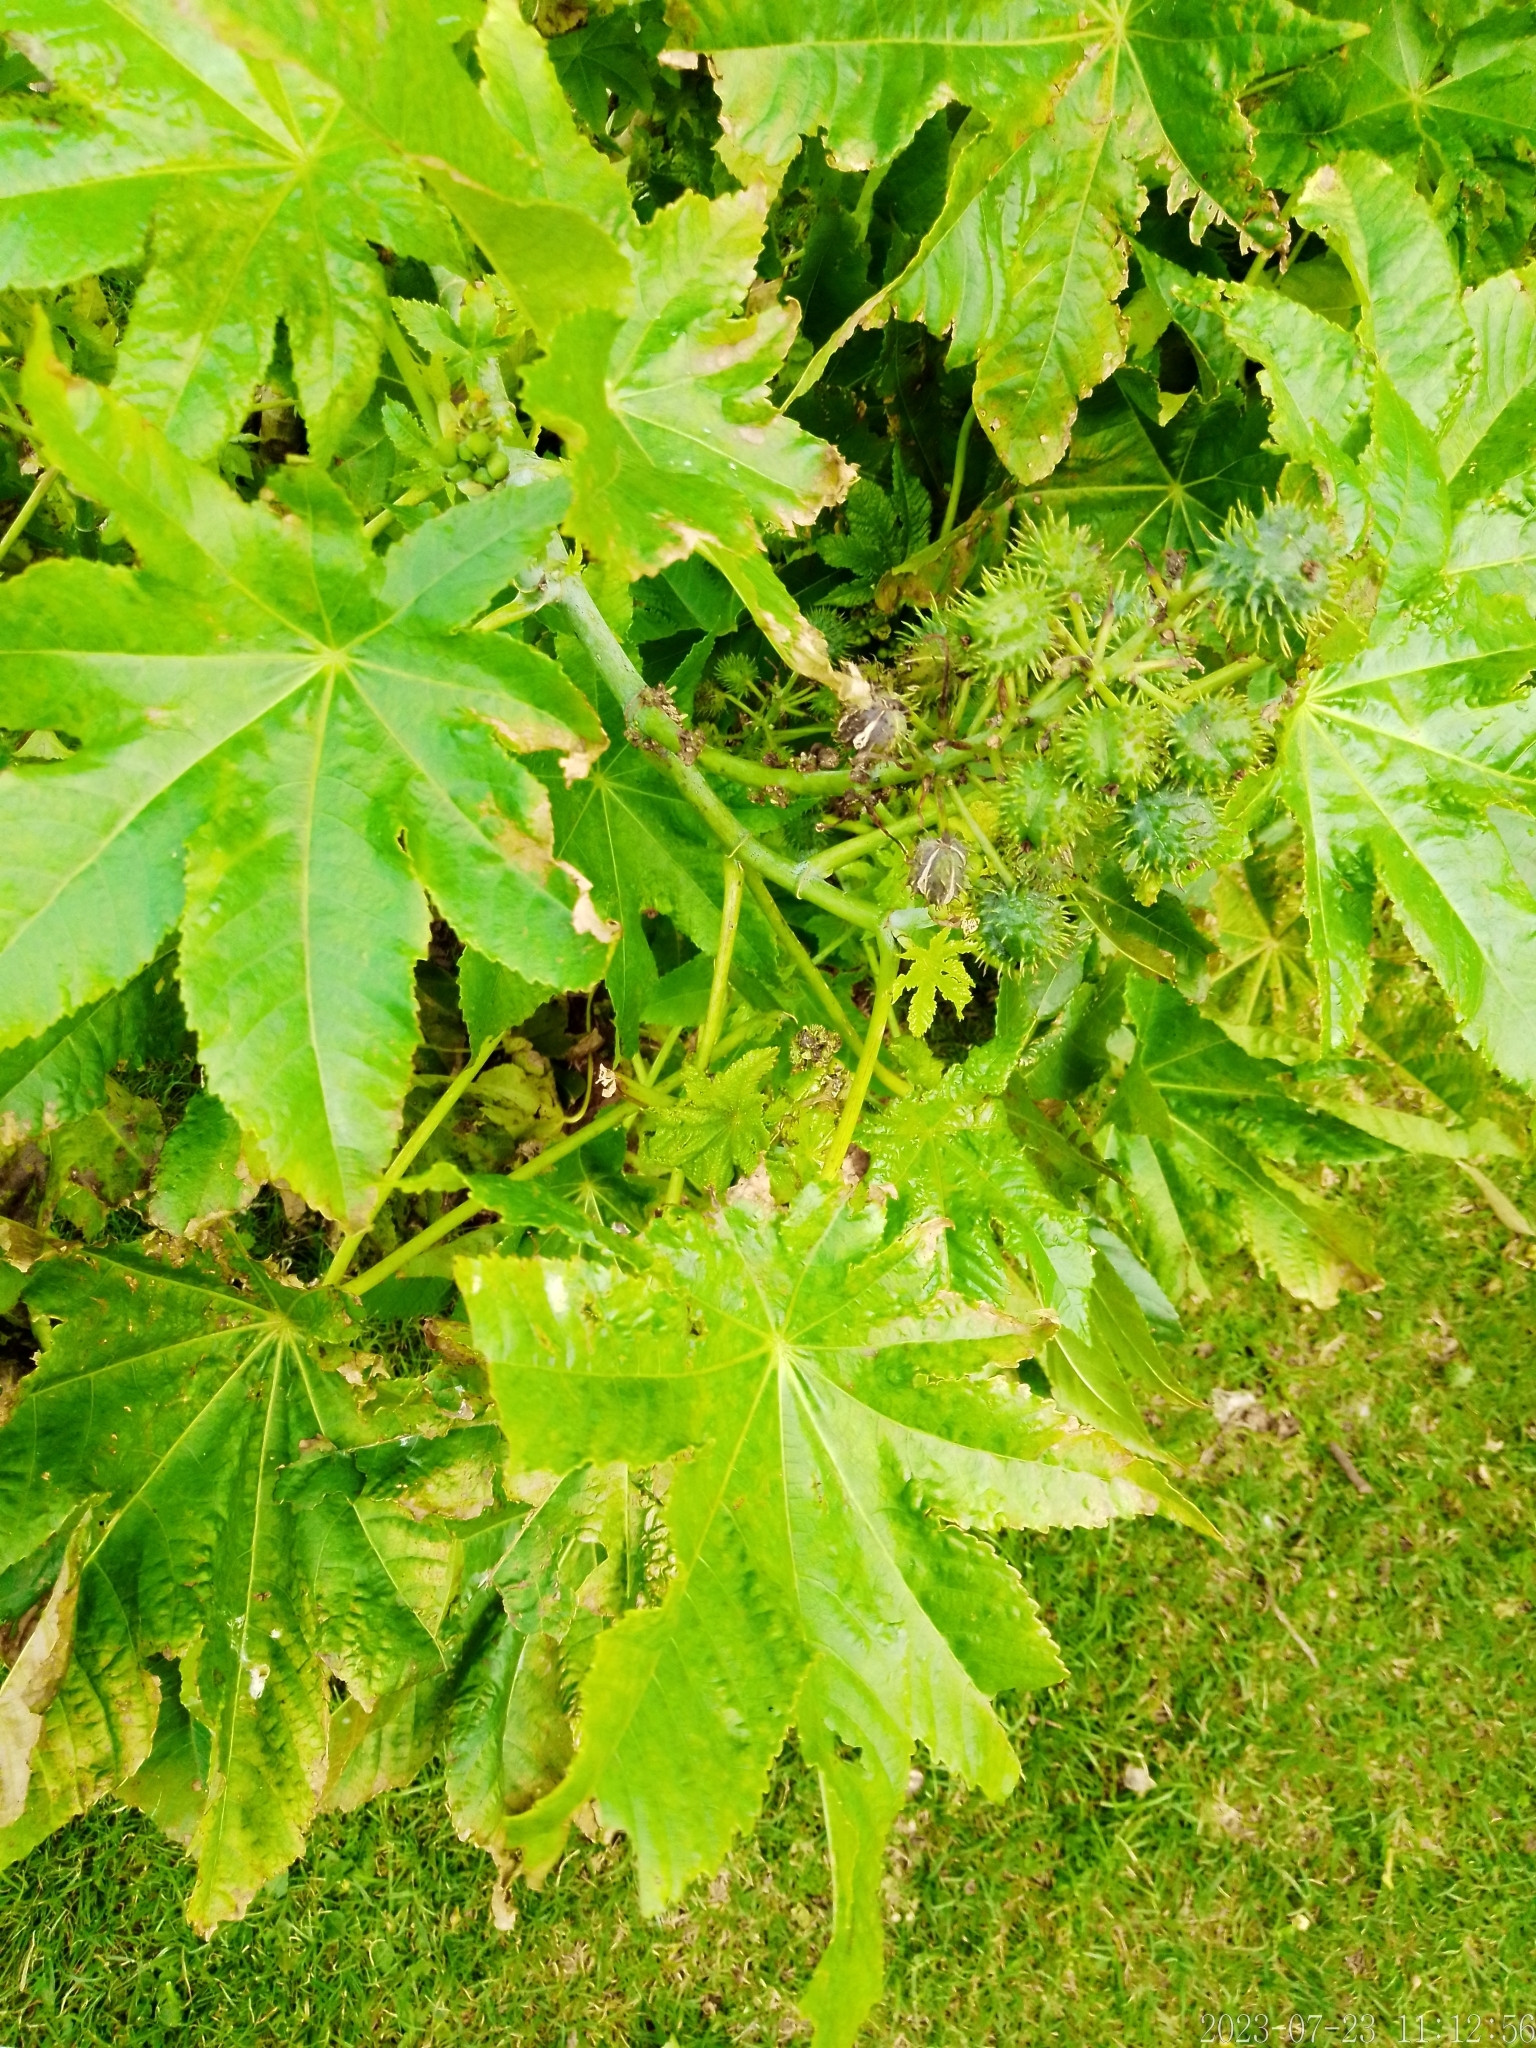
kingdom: Plantae
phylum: Tracheophyta
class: Magnoliopsida
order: Malpighiales
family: Euphorbiaceae
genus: Ricinus
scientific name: Ricinus communis
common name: Castor-oil-plant
